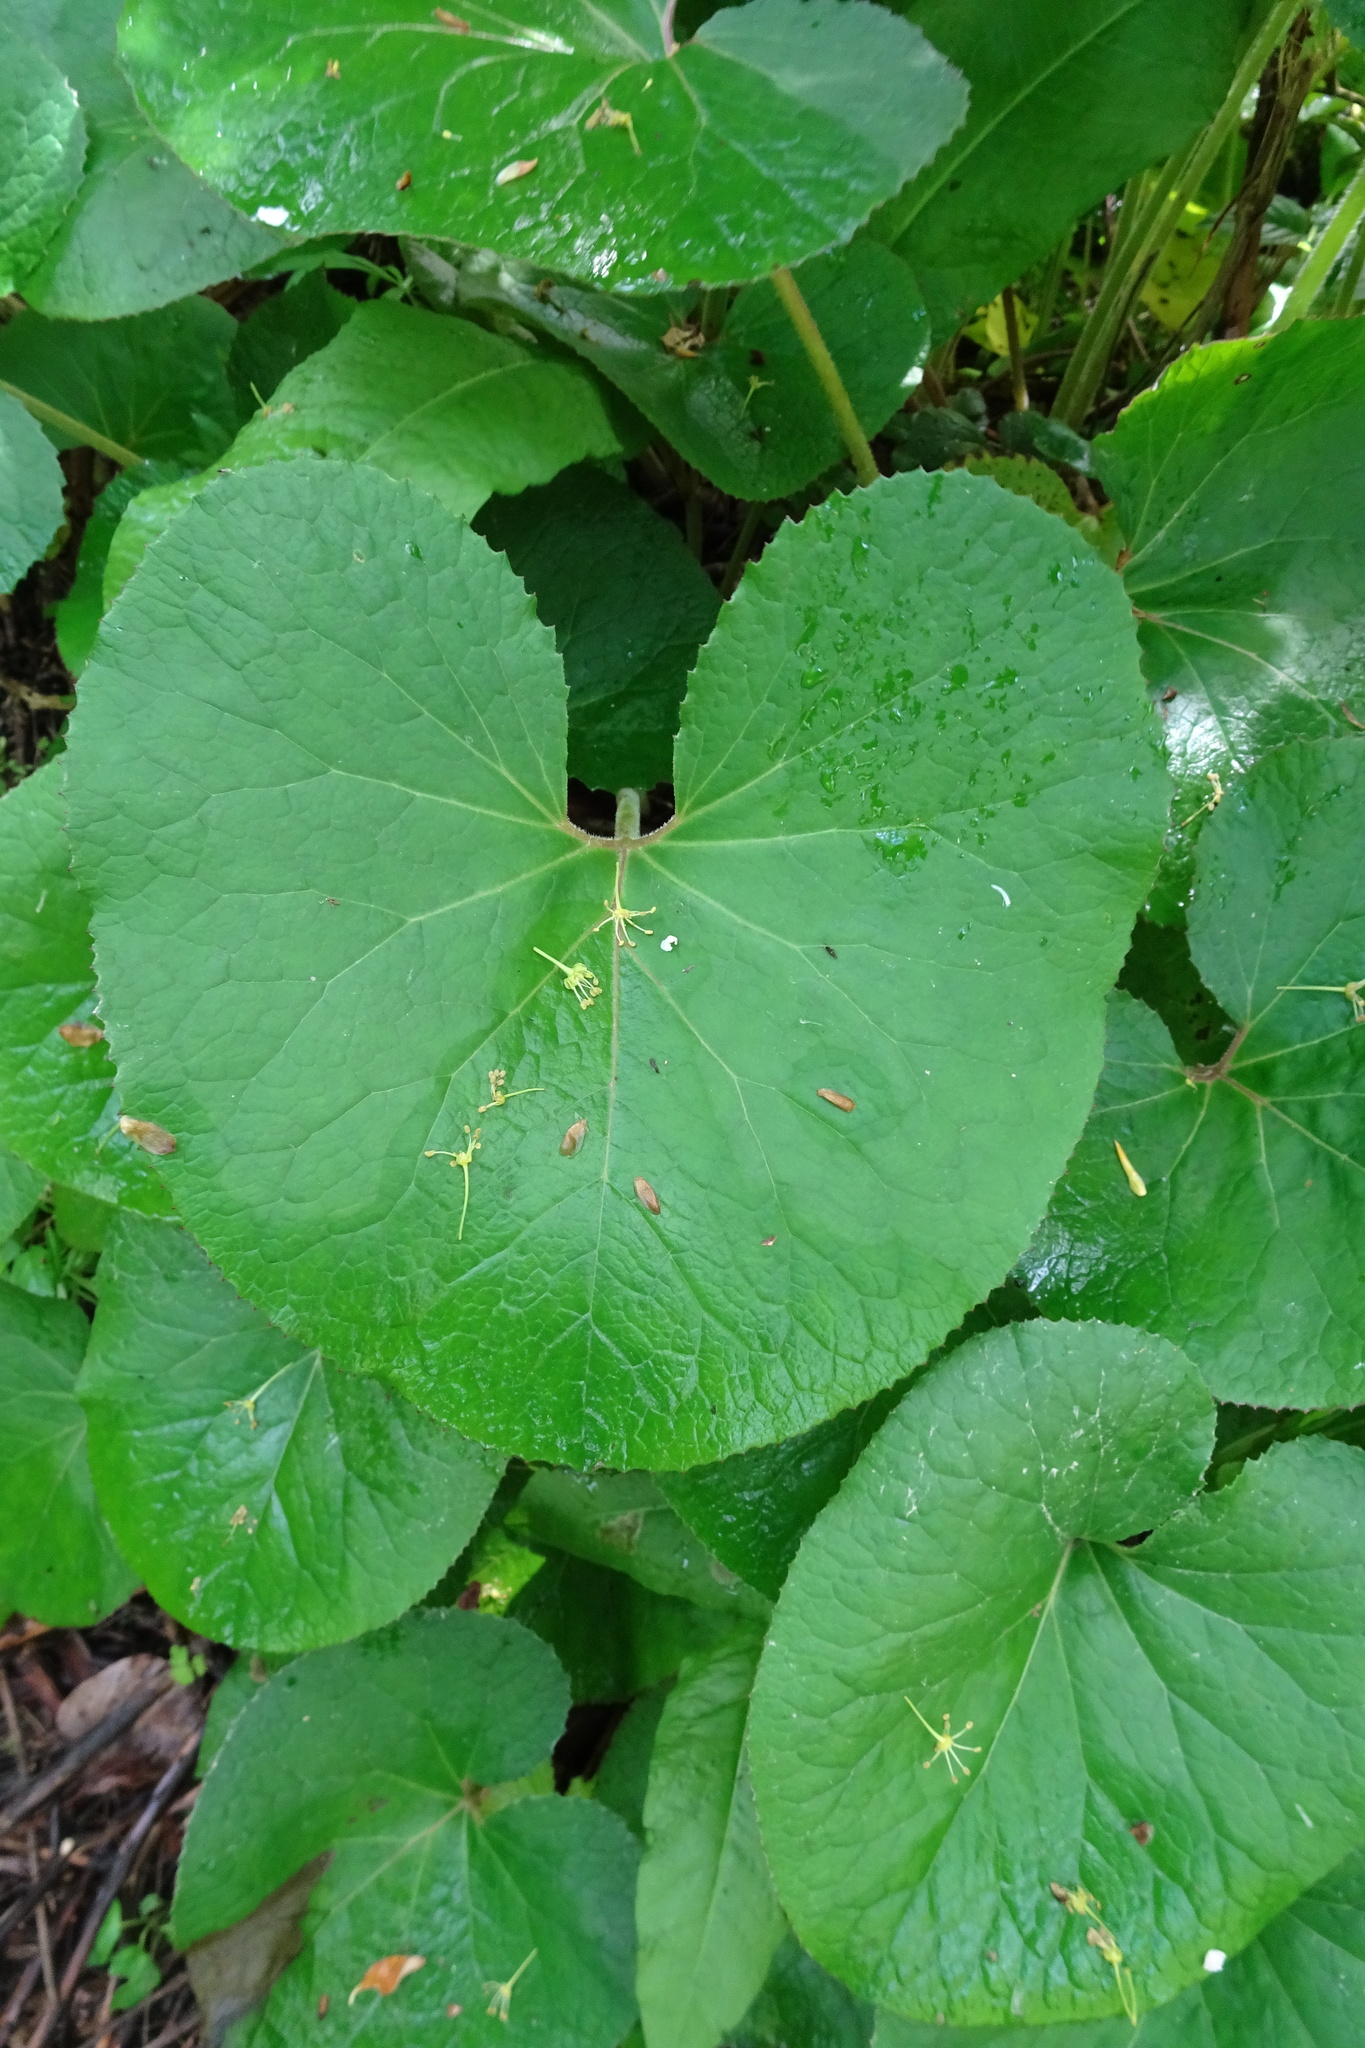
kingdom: Plantae
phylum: Tracheophyta
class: Magnoliopsida
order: Asterales
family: Asteraceae
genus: Petasites
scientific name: Petasites pyrenaicus
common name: Winter heliotrope
